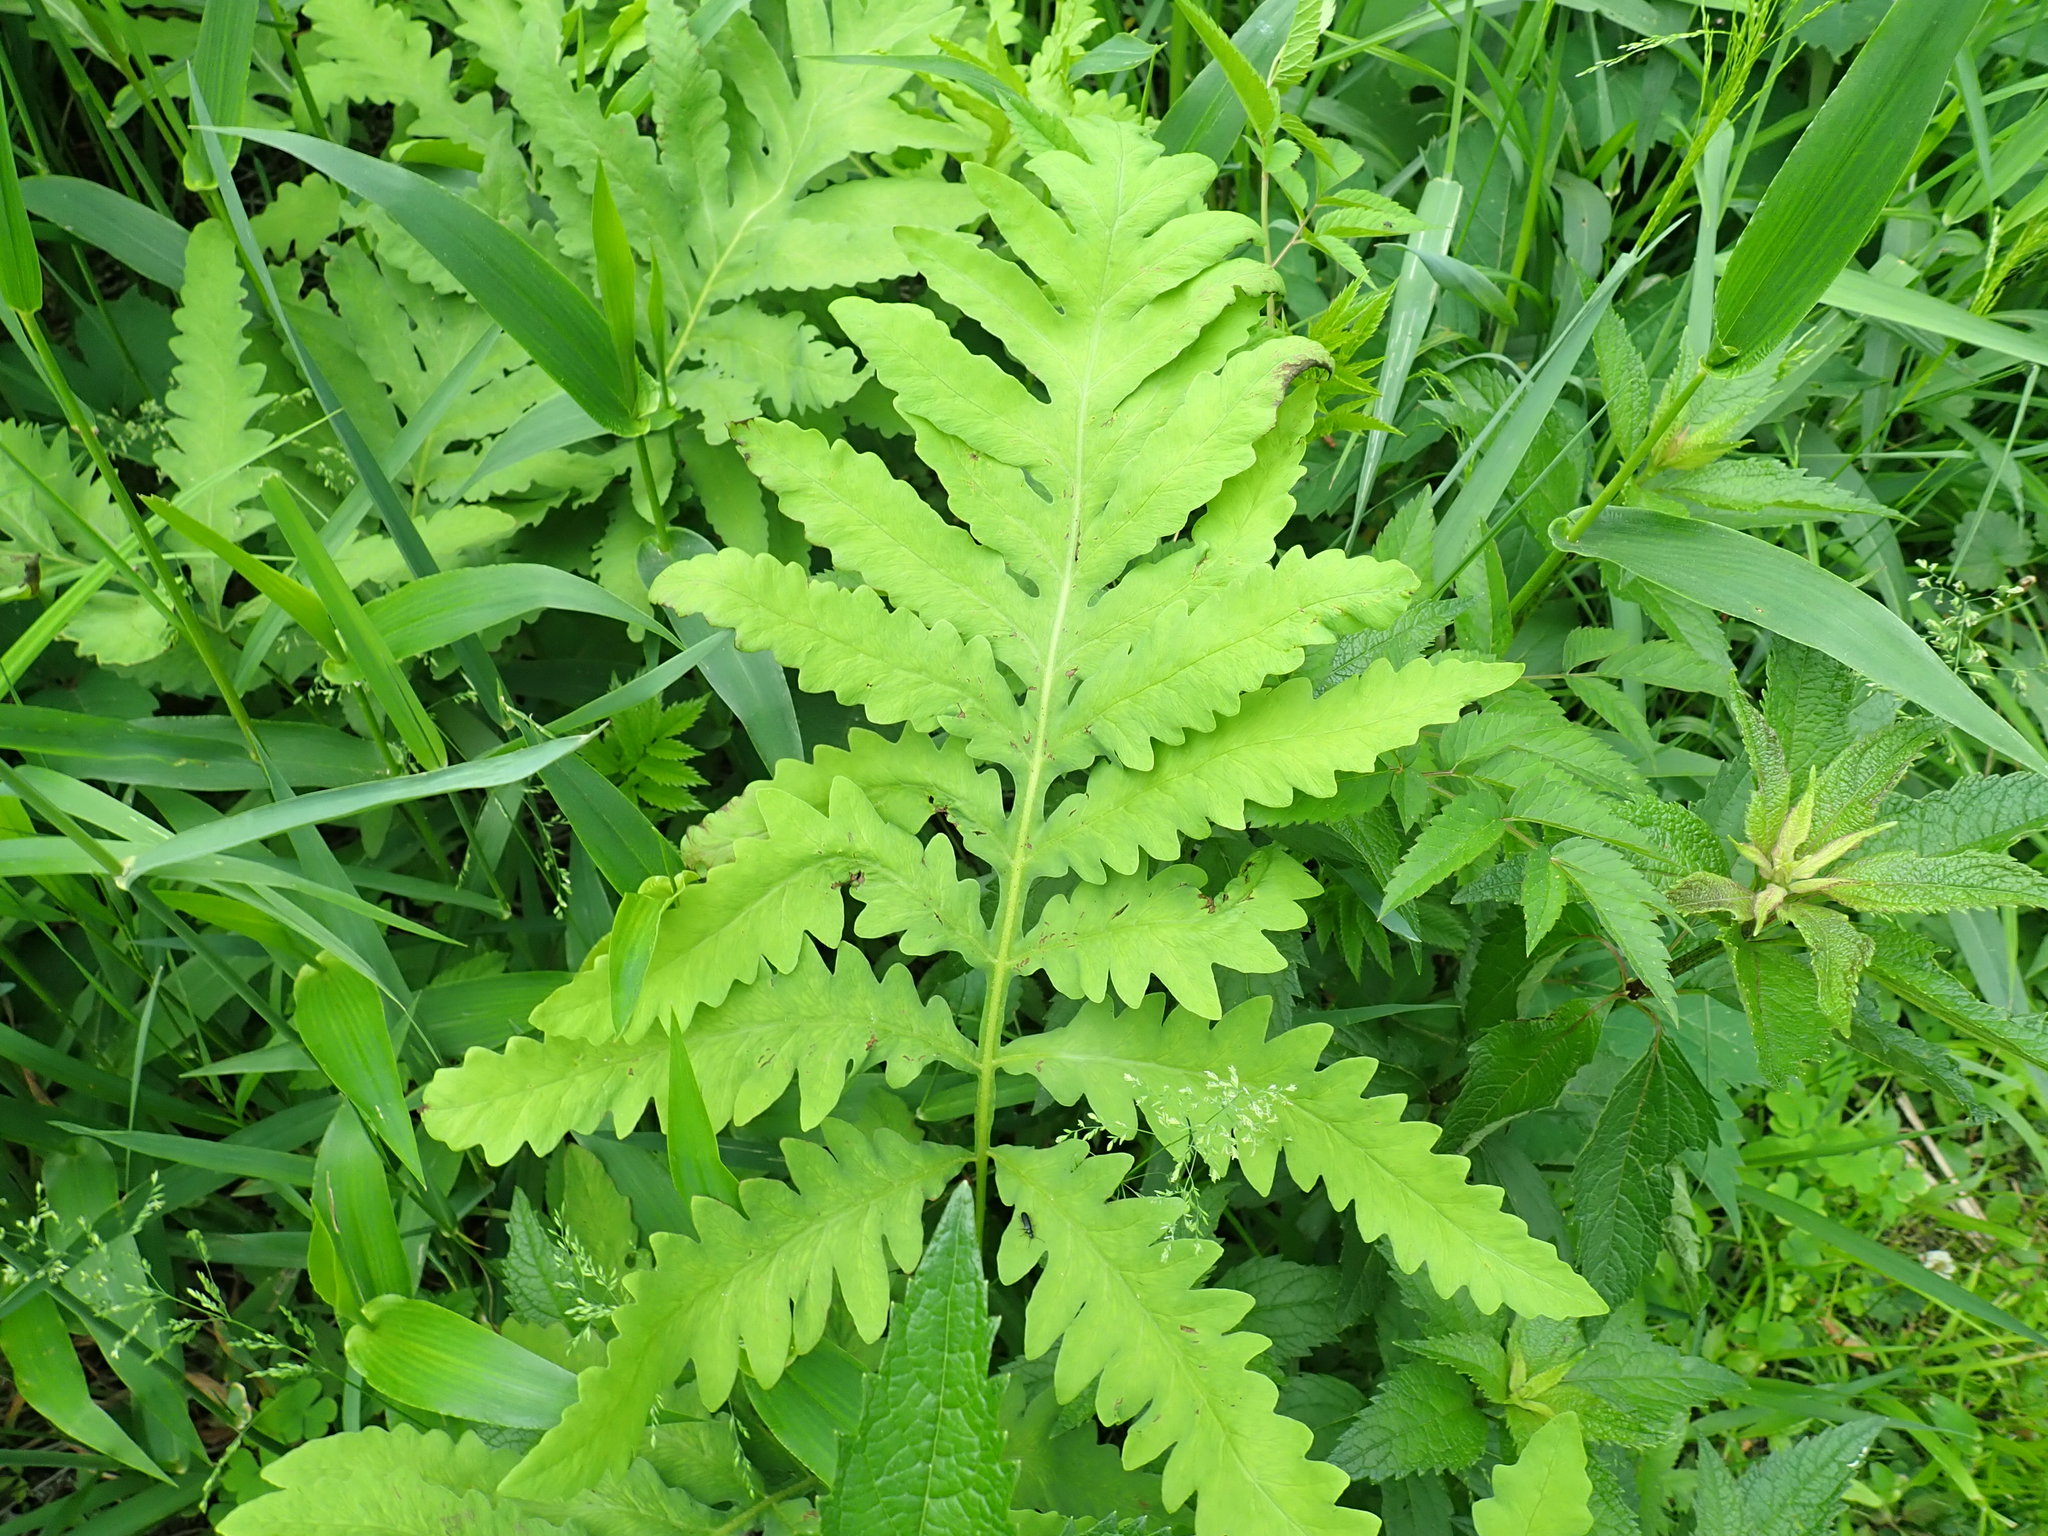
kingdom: Plantae
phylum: Tracheophyta
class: Polypodiopsida
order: Polypodiales
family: Onocleaceae
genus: Onoclea
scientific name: Onoclea sensibilis
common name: Sensitive fern
